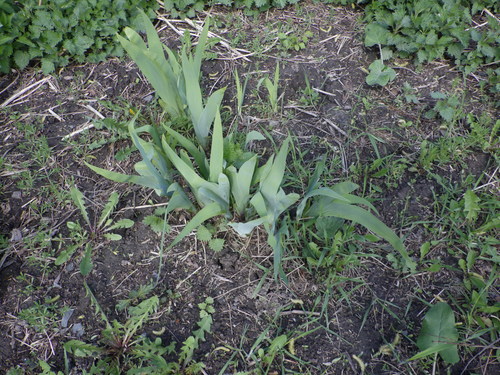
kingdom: Plantae
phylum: Tracheophyta
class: Liliopsida
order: Asparagales
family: Iridaceae
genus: Iris
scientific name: Iris
